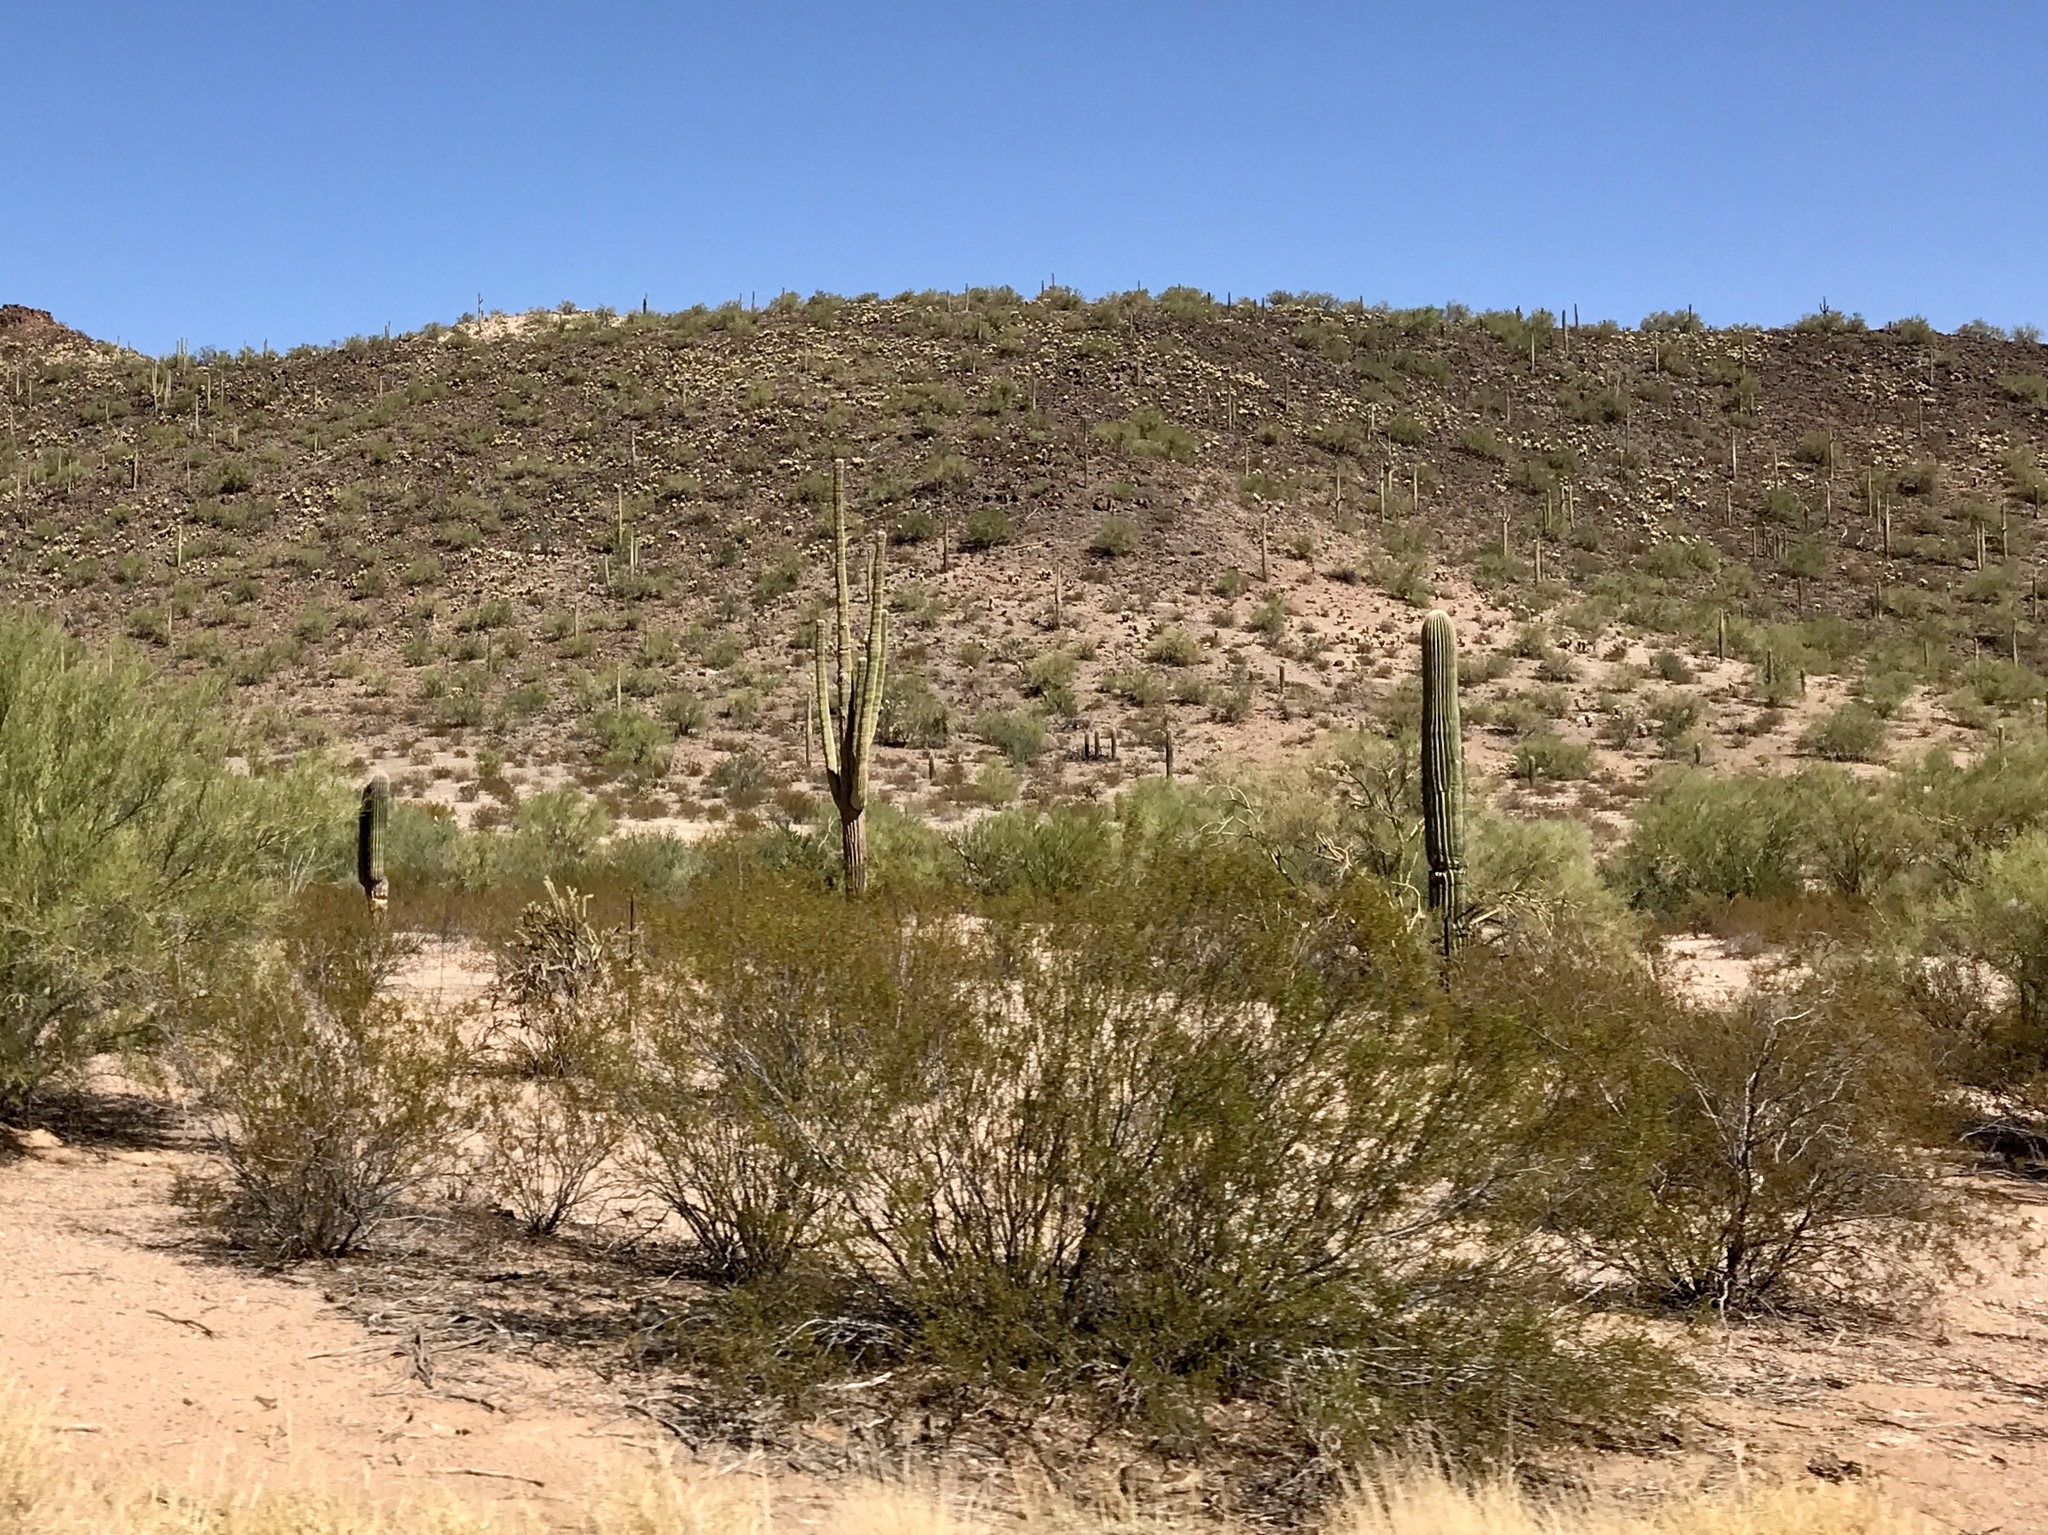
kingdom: Plantae
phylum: Tracheophyta
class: Magnoliopsida
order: Zygophyllales
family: Zygophyllaceae
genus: Larrea
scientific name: Larrea tridentata
